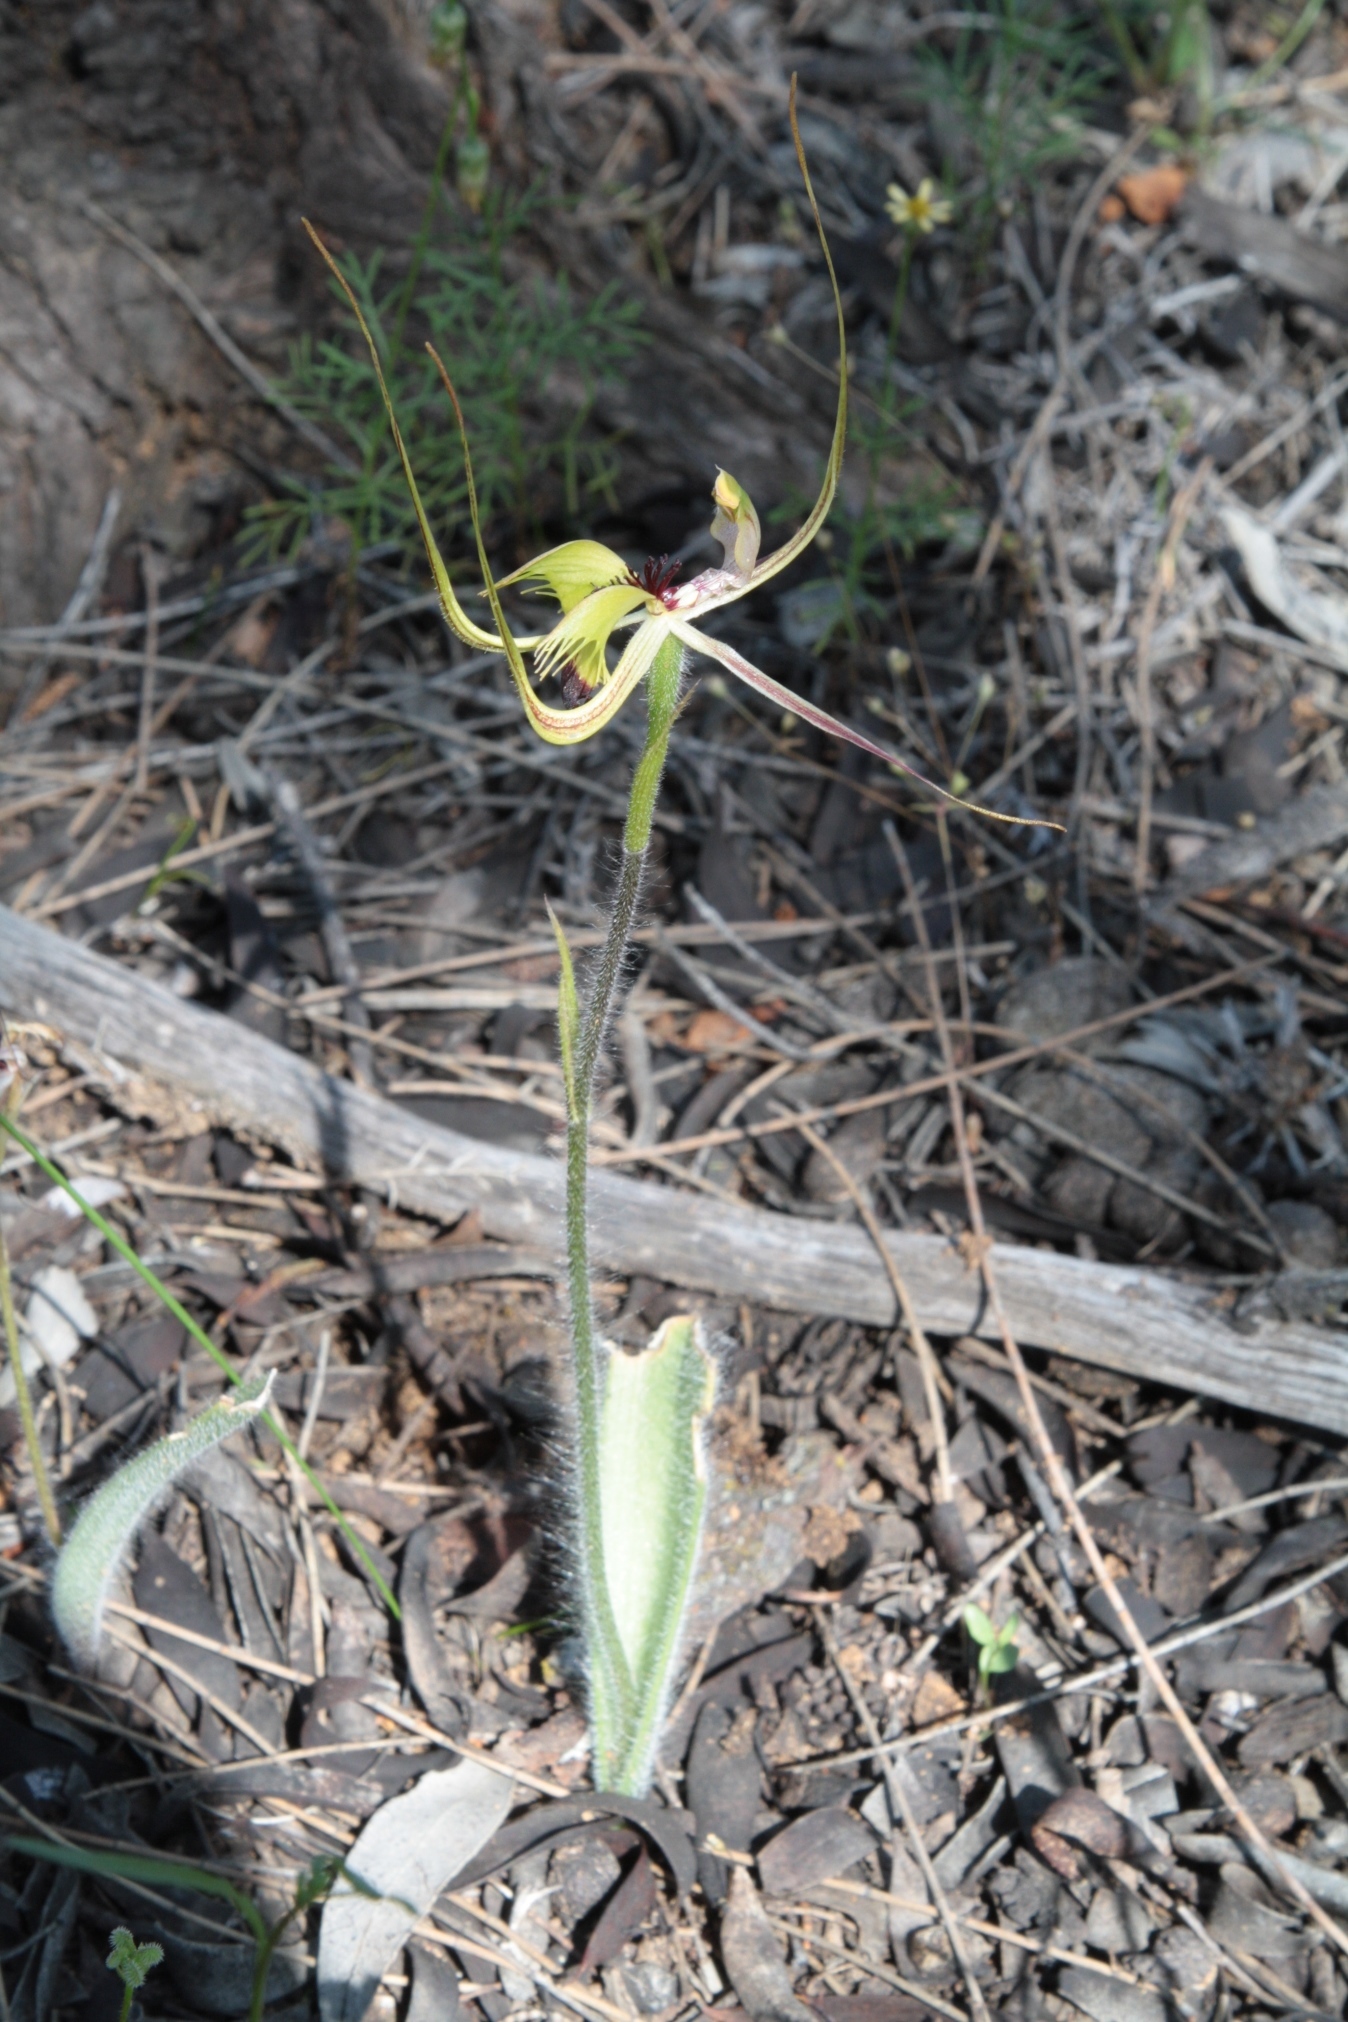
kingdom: Plantae
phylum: Tracheophyta
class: Liliopsida
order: Asparagales
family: Orchidaceae
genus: Caladenia
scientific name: Caladenia falcata
